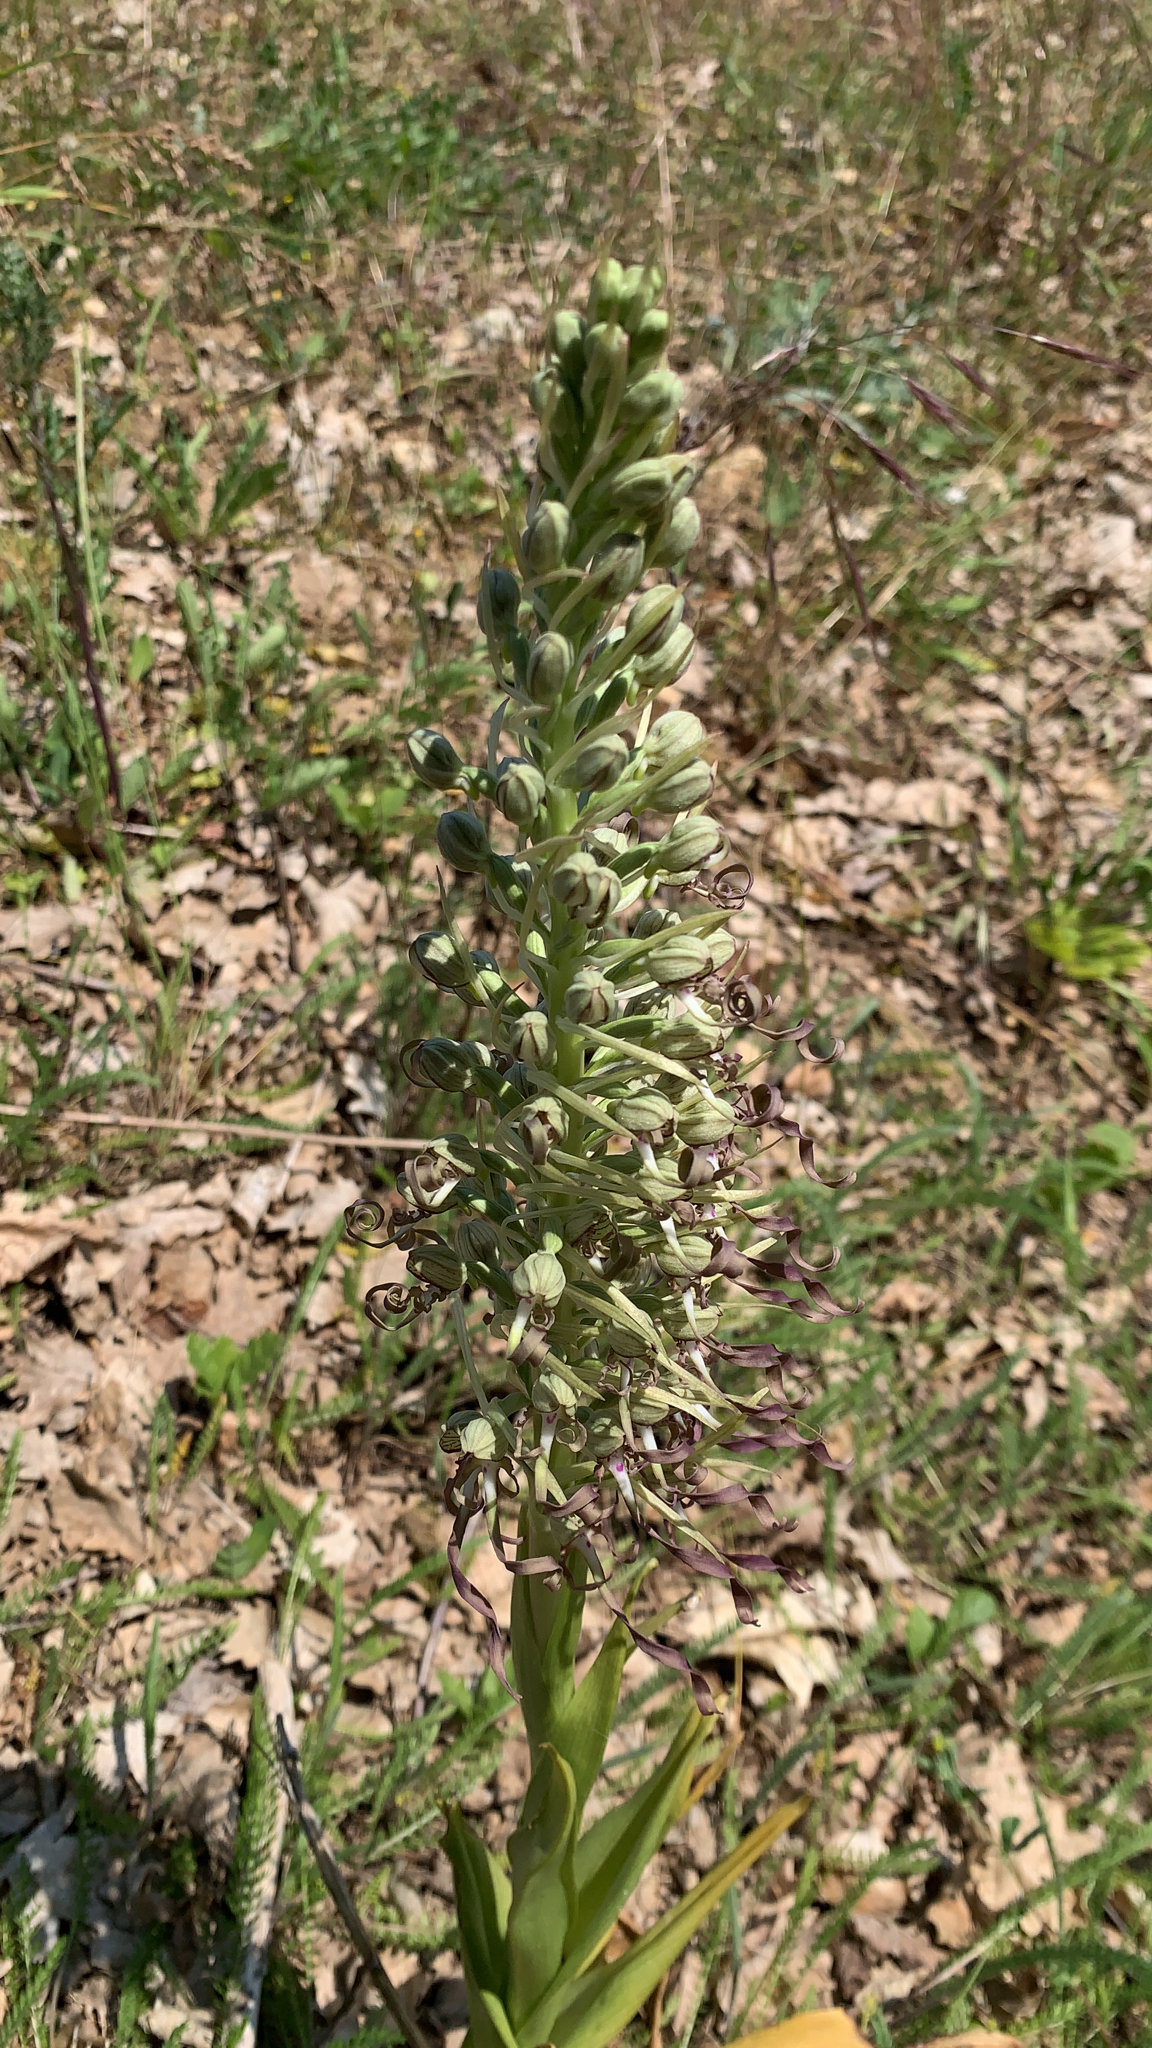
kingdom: Plantae
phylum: Tracheophyta
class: Liliopsida
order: Asparagales
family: Orchidaceae
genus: Himantoglossum
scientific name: Himantoglossum hircinum
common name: Lizard orchid
